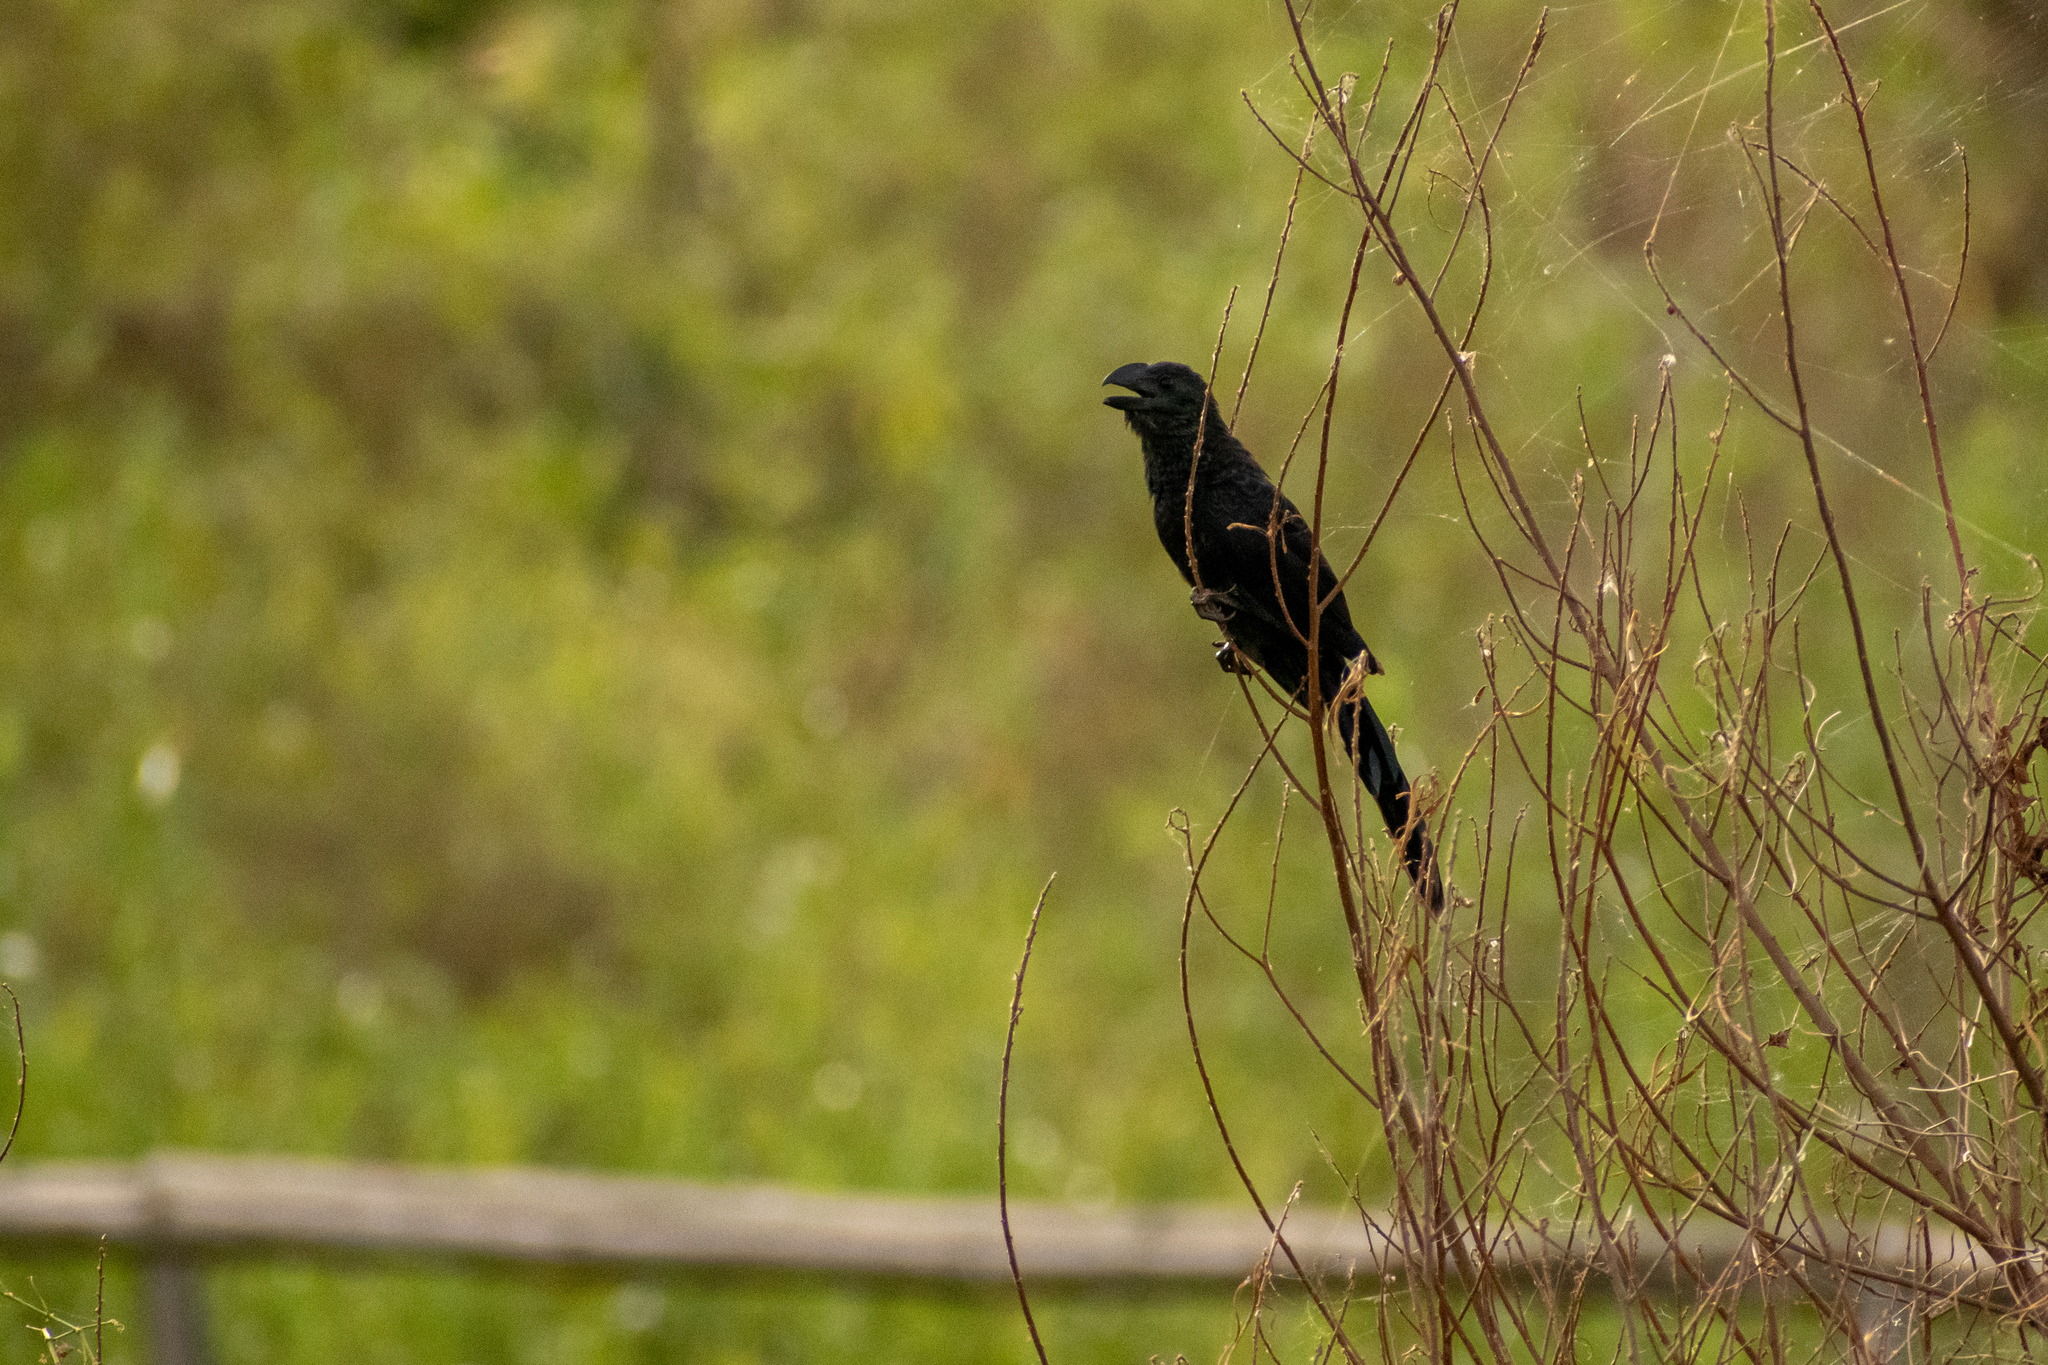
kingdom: Animalia
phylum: Chordata
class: Aves
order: Cuculiformes
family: Cuculidae
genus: Crotophaga
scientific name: Crotophaga ani
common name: Smooth-billed ani
